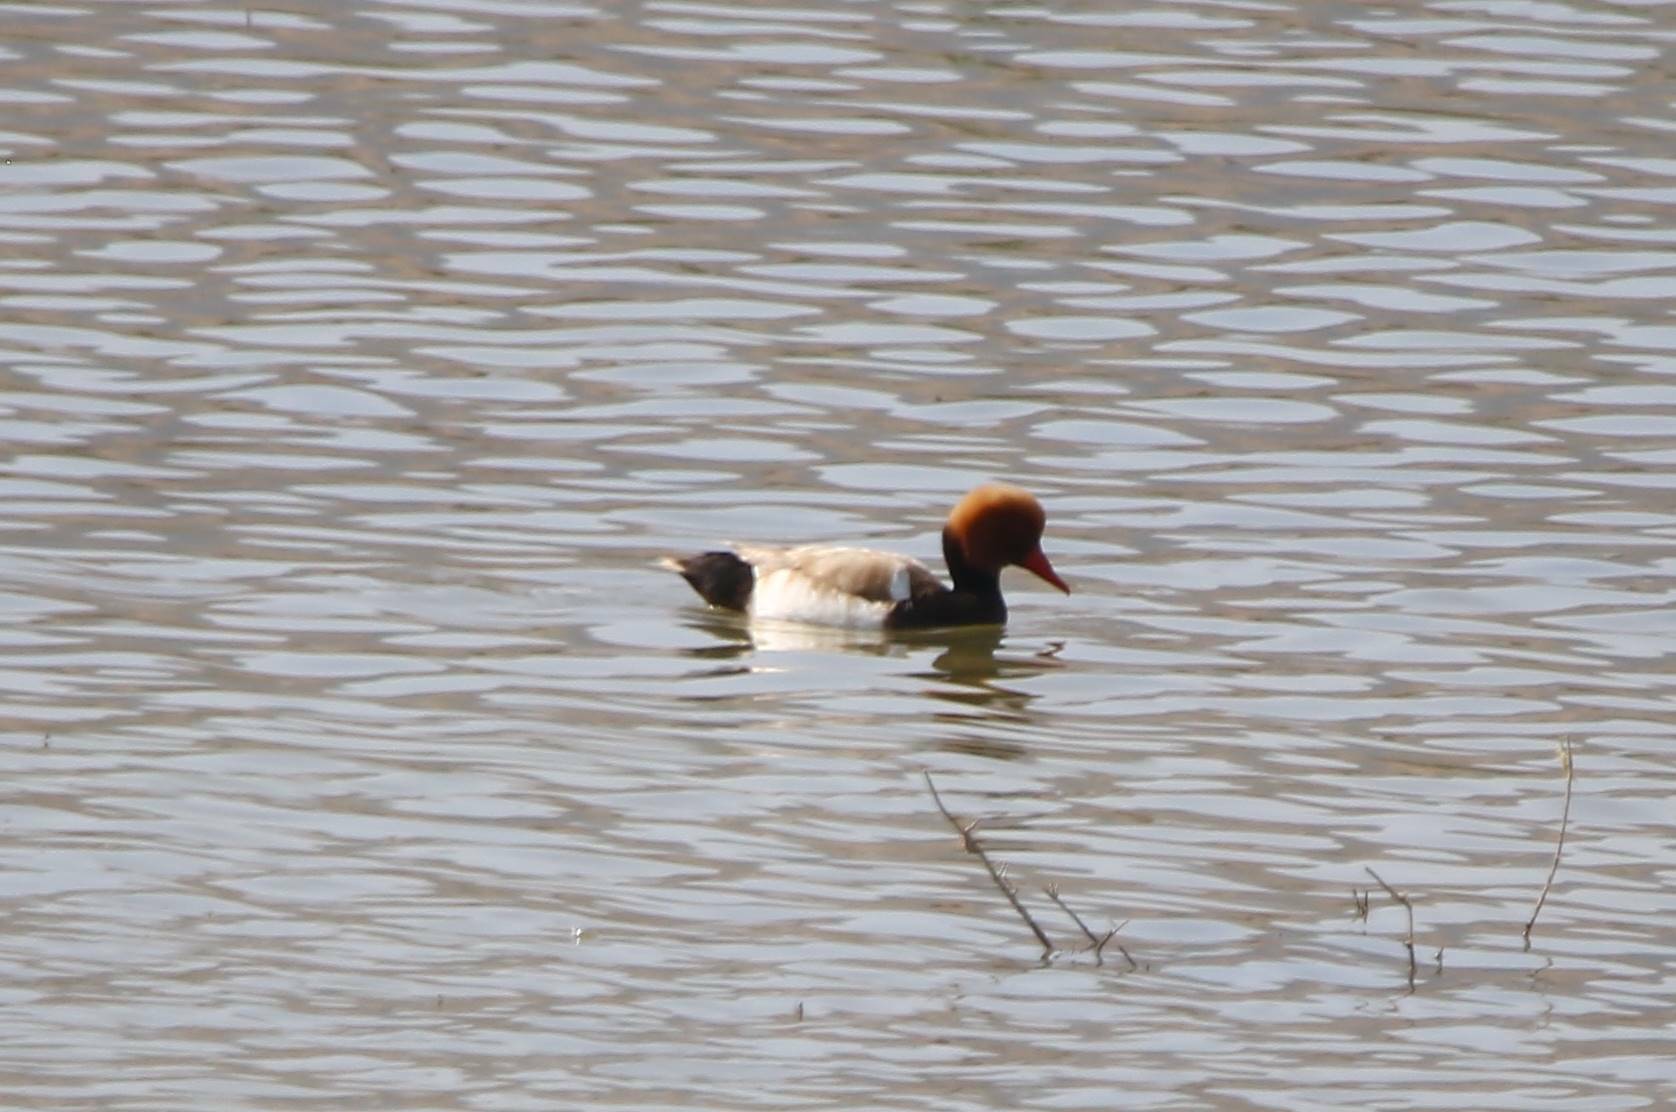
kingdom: Animalia
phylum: Chordata
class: Aves
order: Anseriformes
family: Anatidae
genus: Netta
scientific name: Netta rufina
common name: Red-crested pochard
